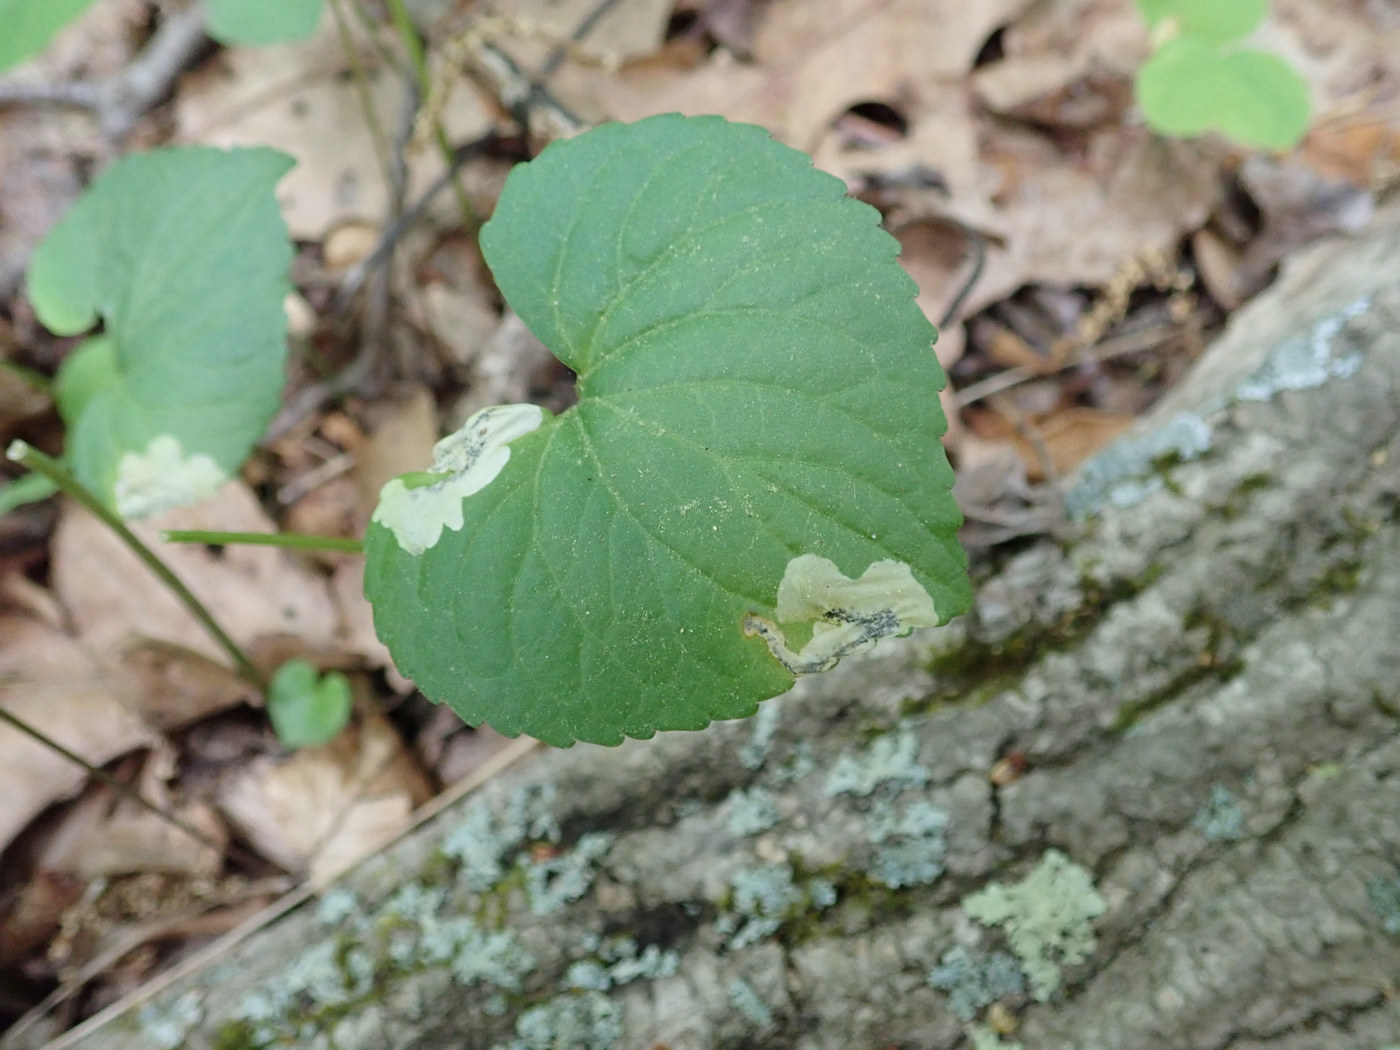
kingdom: Animalia
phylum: Arthropoda
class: Insecta
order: Hymenoptera
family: Tenthredinidae
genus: Nefusa
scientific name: Nefusa ambigua
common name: Violet leafmining sawfly
